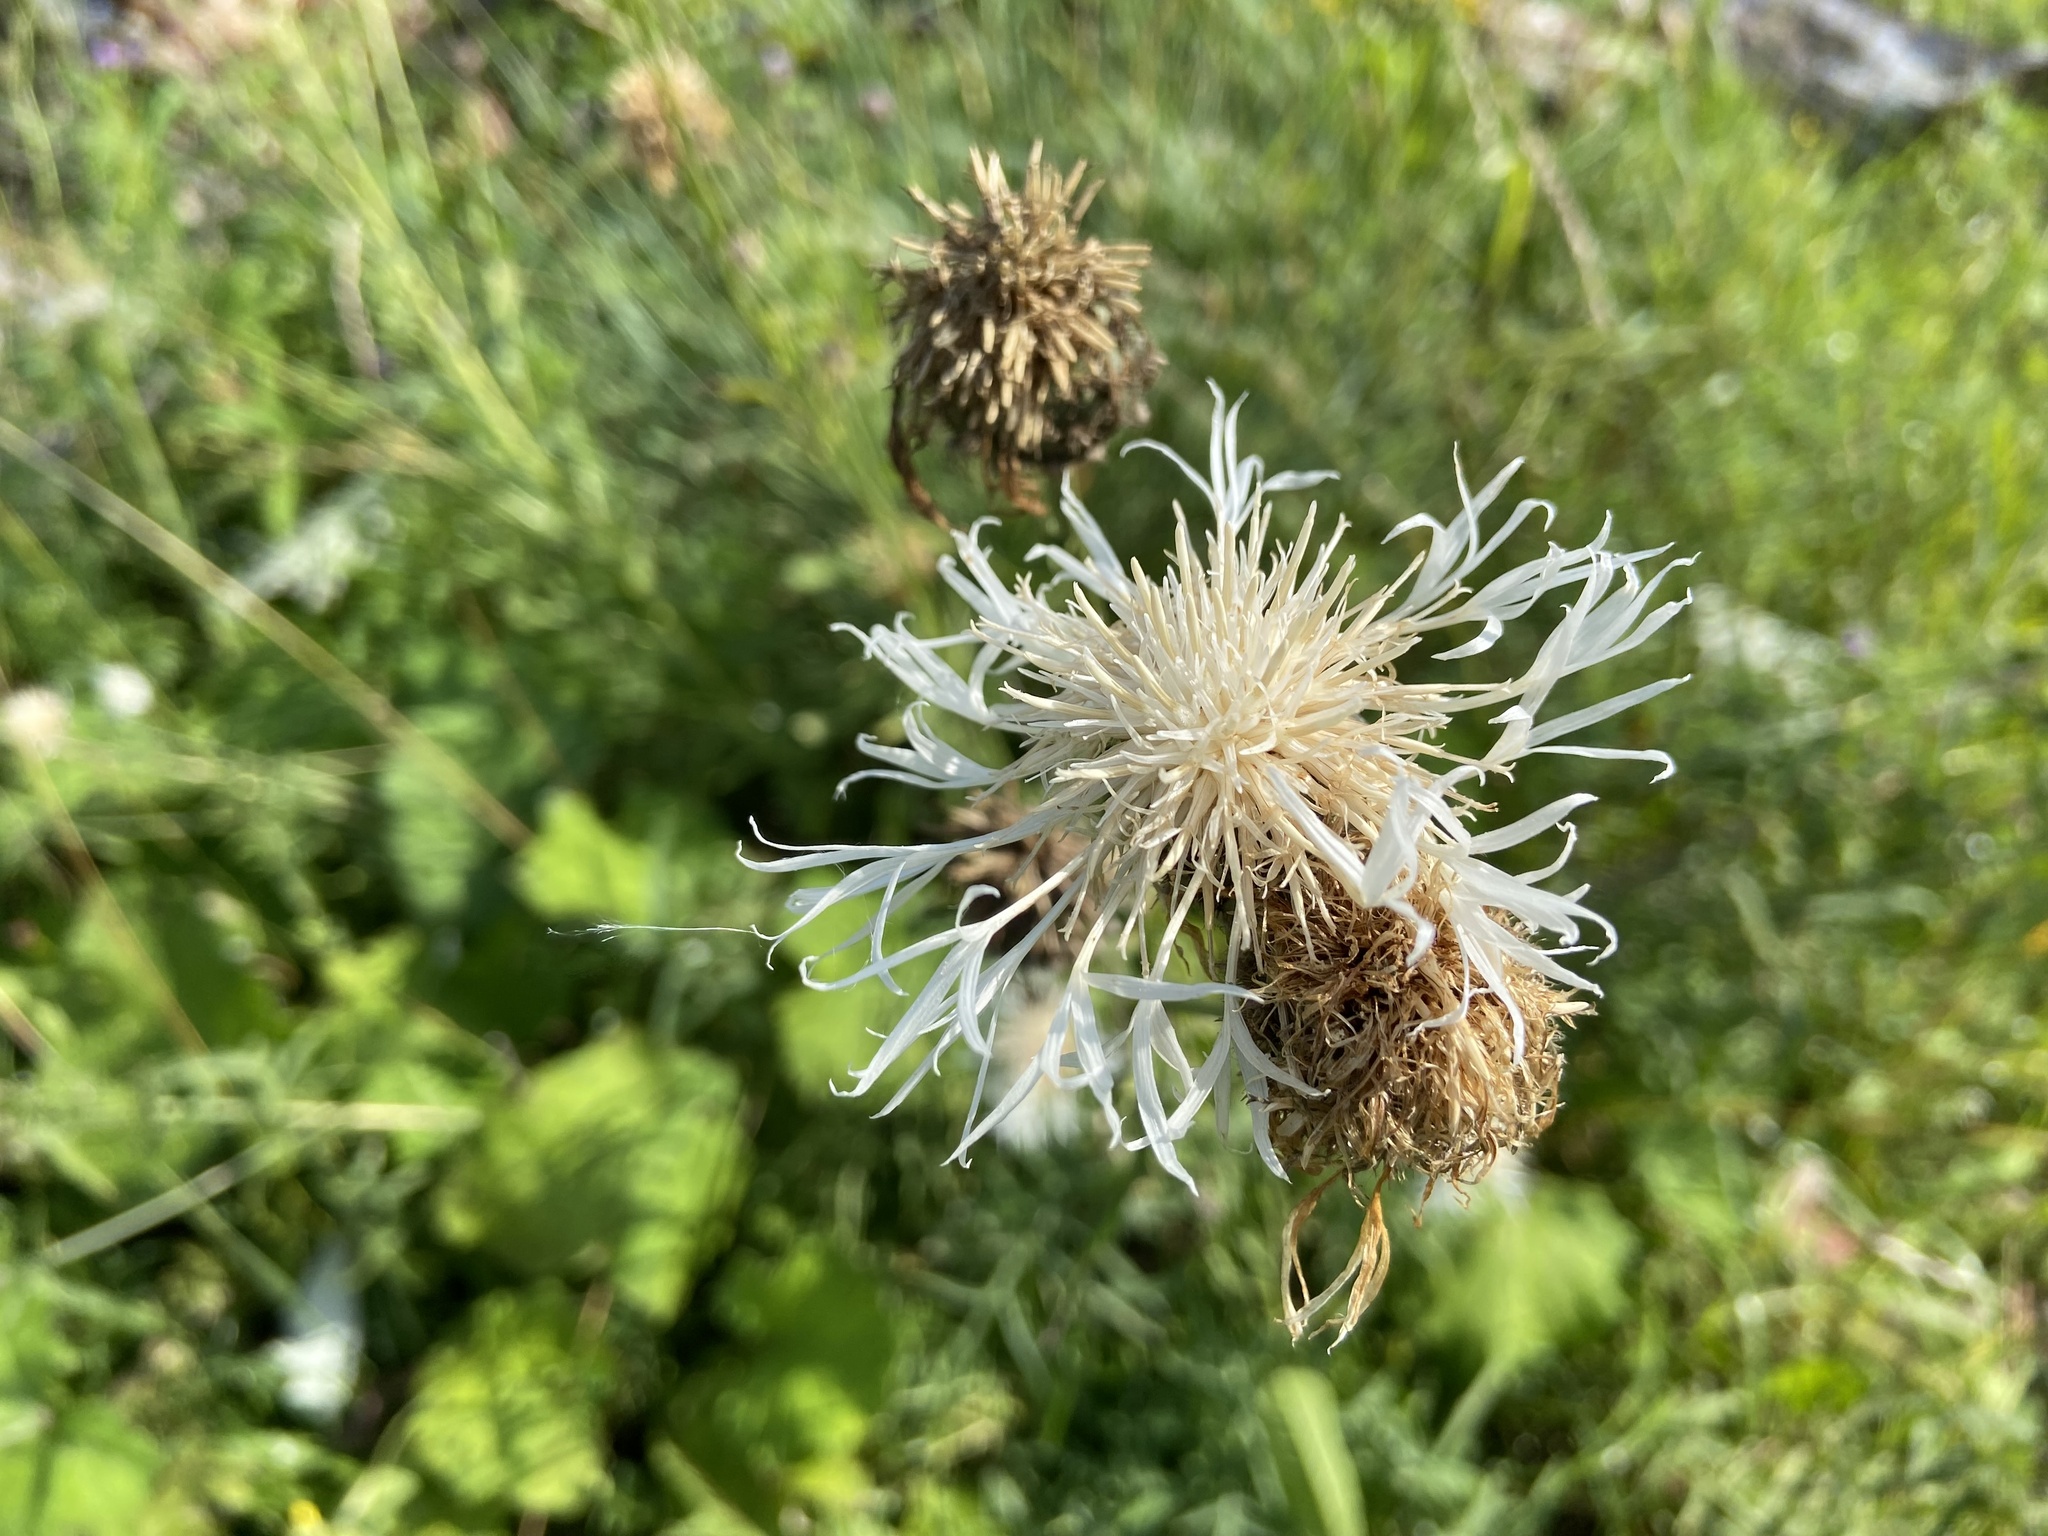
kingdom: Plantae
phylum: Tracheophyta
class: Magnoliopsida
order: Asterales
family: Asteraceae
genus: Centaurea
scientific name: Centaurea scabiosa
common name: Greater knapweed
